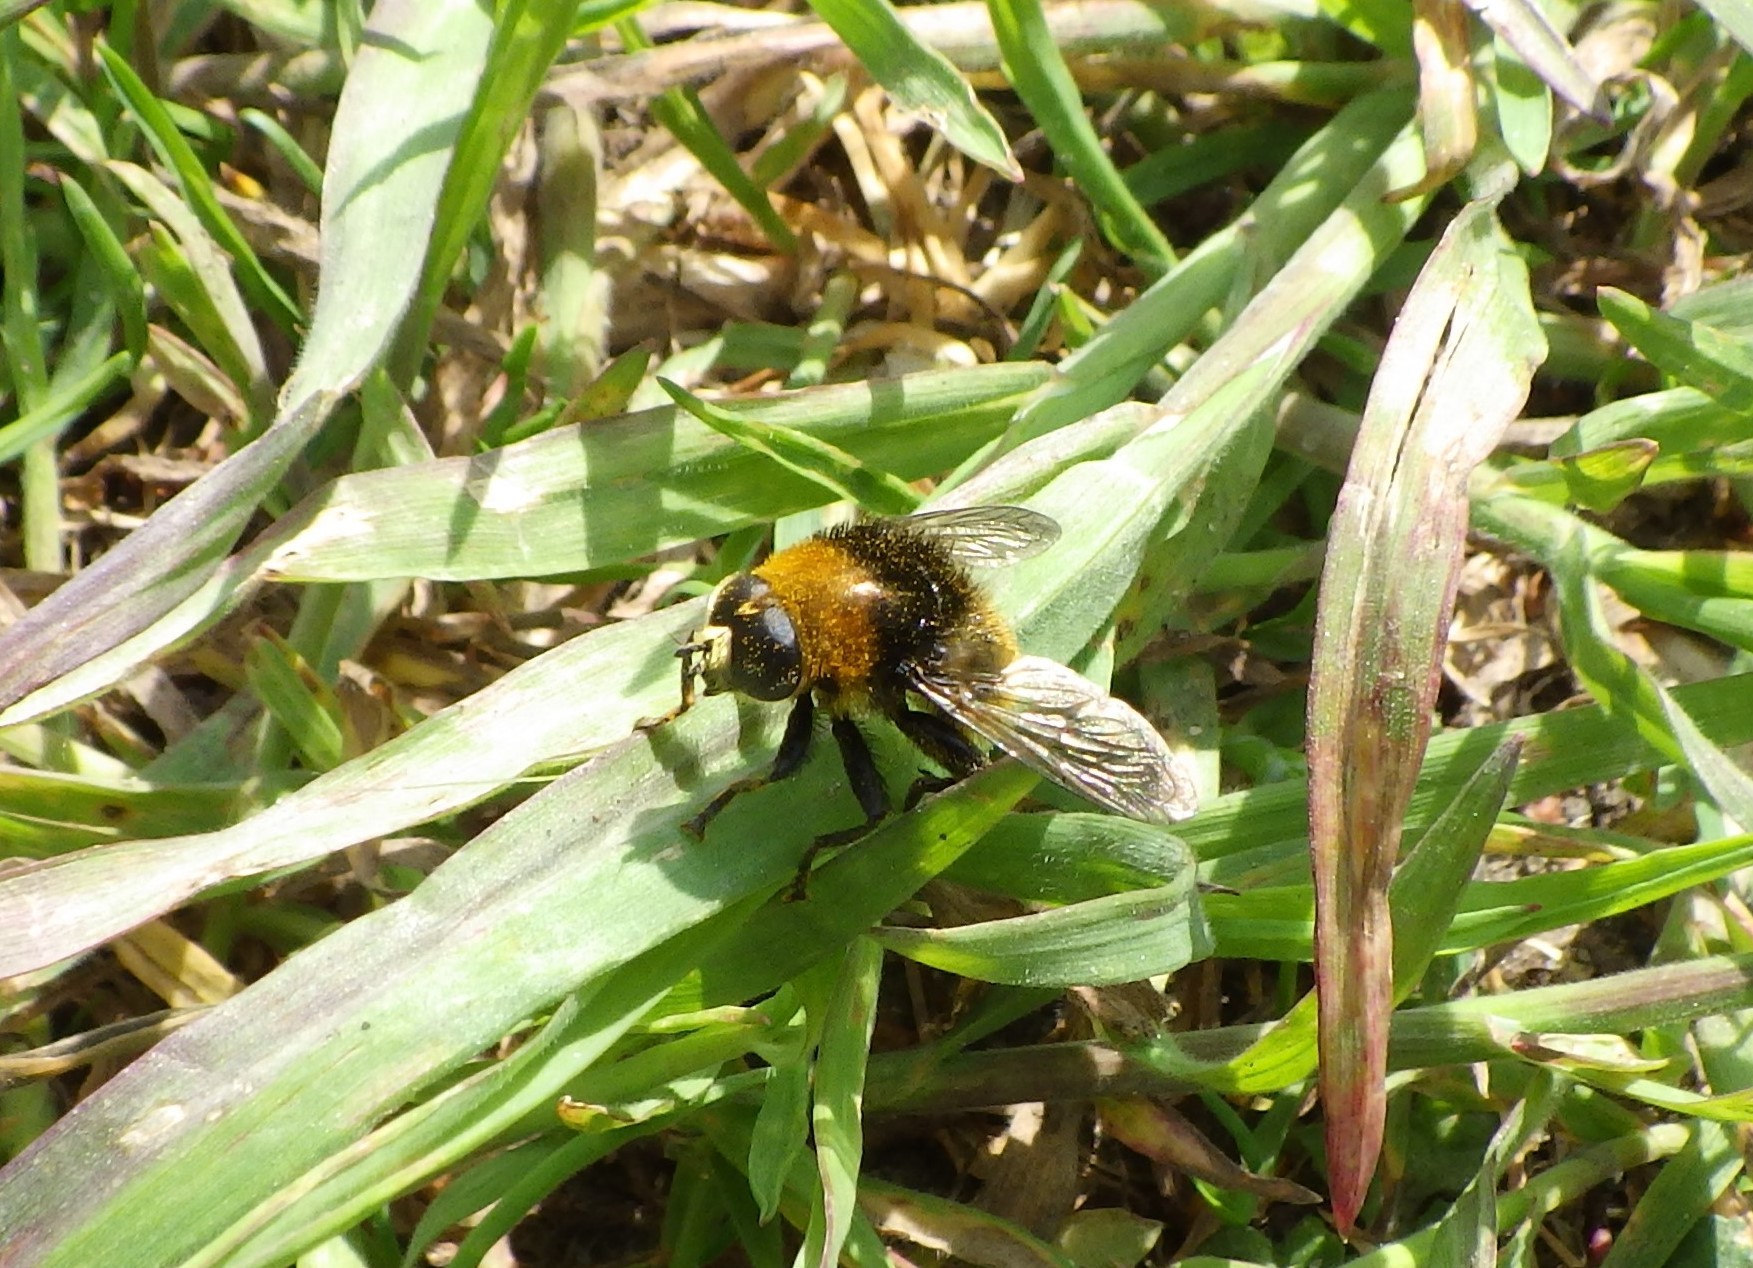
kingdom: Animalia
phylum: Arthropoda
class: Insecta
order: Diptera
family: Syrphidae
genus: Merodon
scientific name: Merodon equestris
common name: Greater bulb-fly
